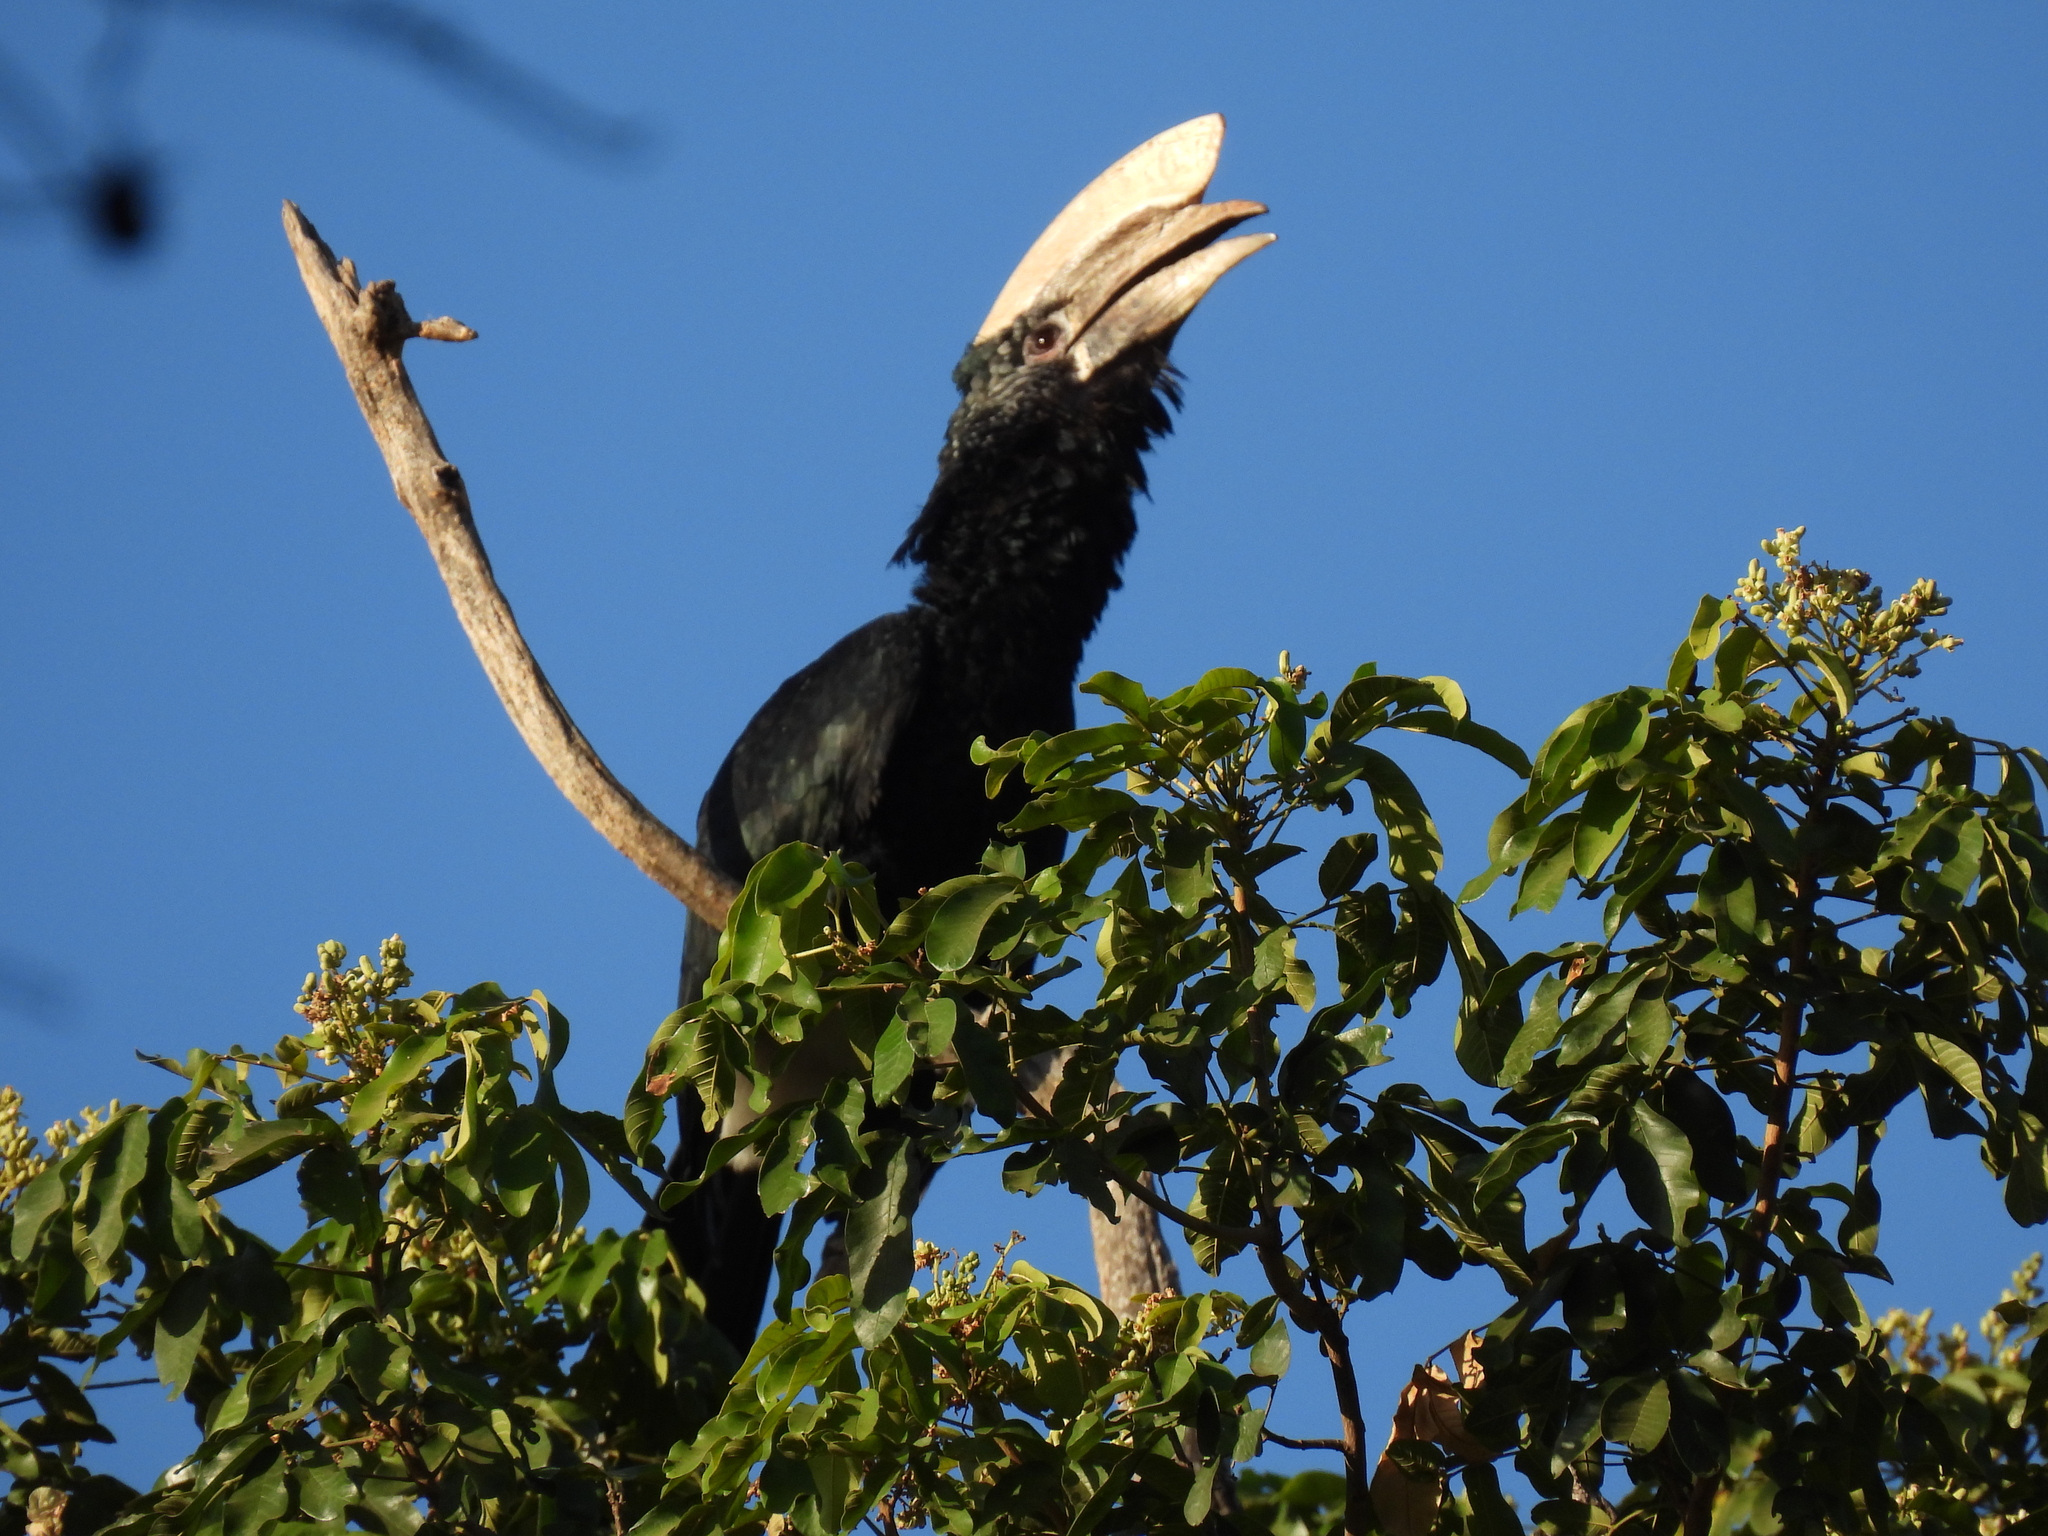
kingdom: Animalia
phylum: Chordata
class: Aves
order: Bucerotiformes
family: Bucerotidae
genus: Bycanistes
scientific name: Bycanistes brevis
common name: Silvery-cheeked hornbill
